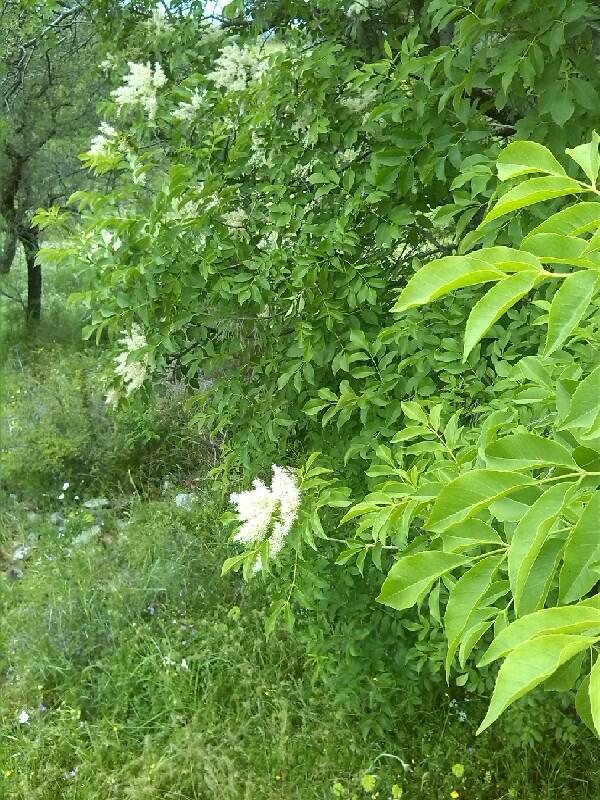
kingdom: Plantae
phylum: Tracheophyta
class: Magnoliopsida
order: Lamiales
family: Oleaceae
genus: Fraxinus
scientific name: Fraxinus ornus
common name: Manna ash
